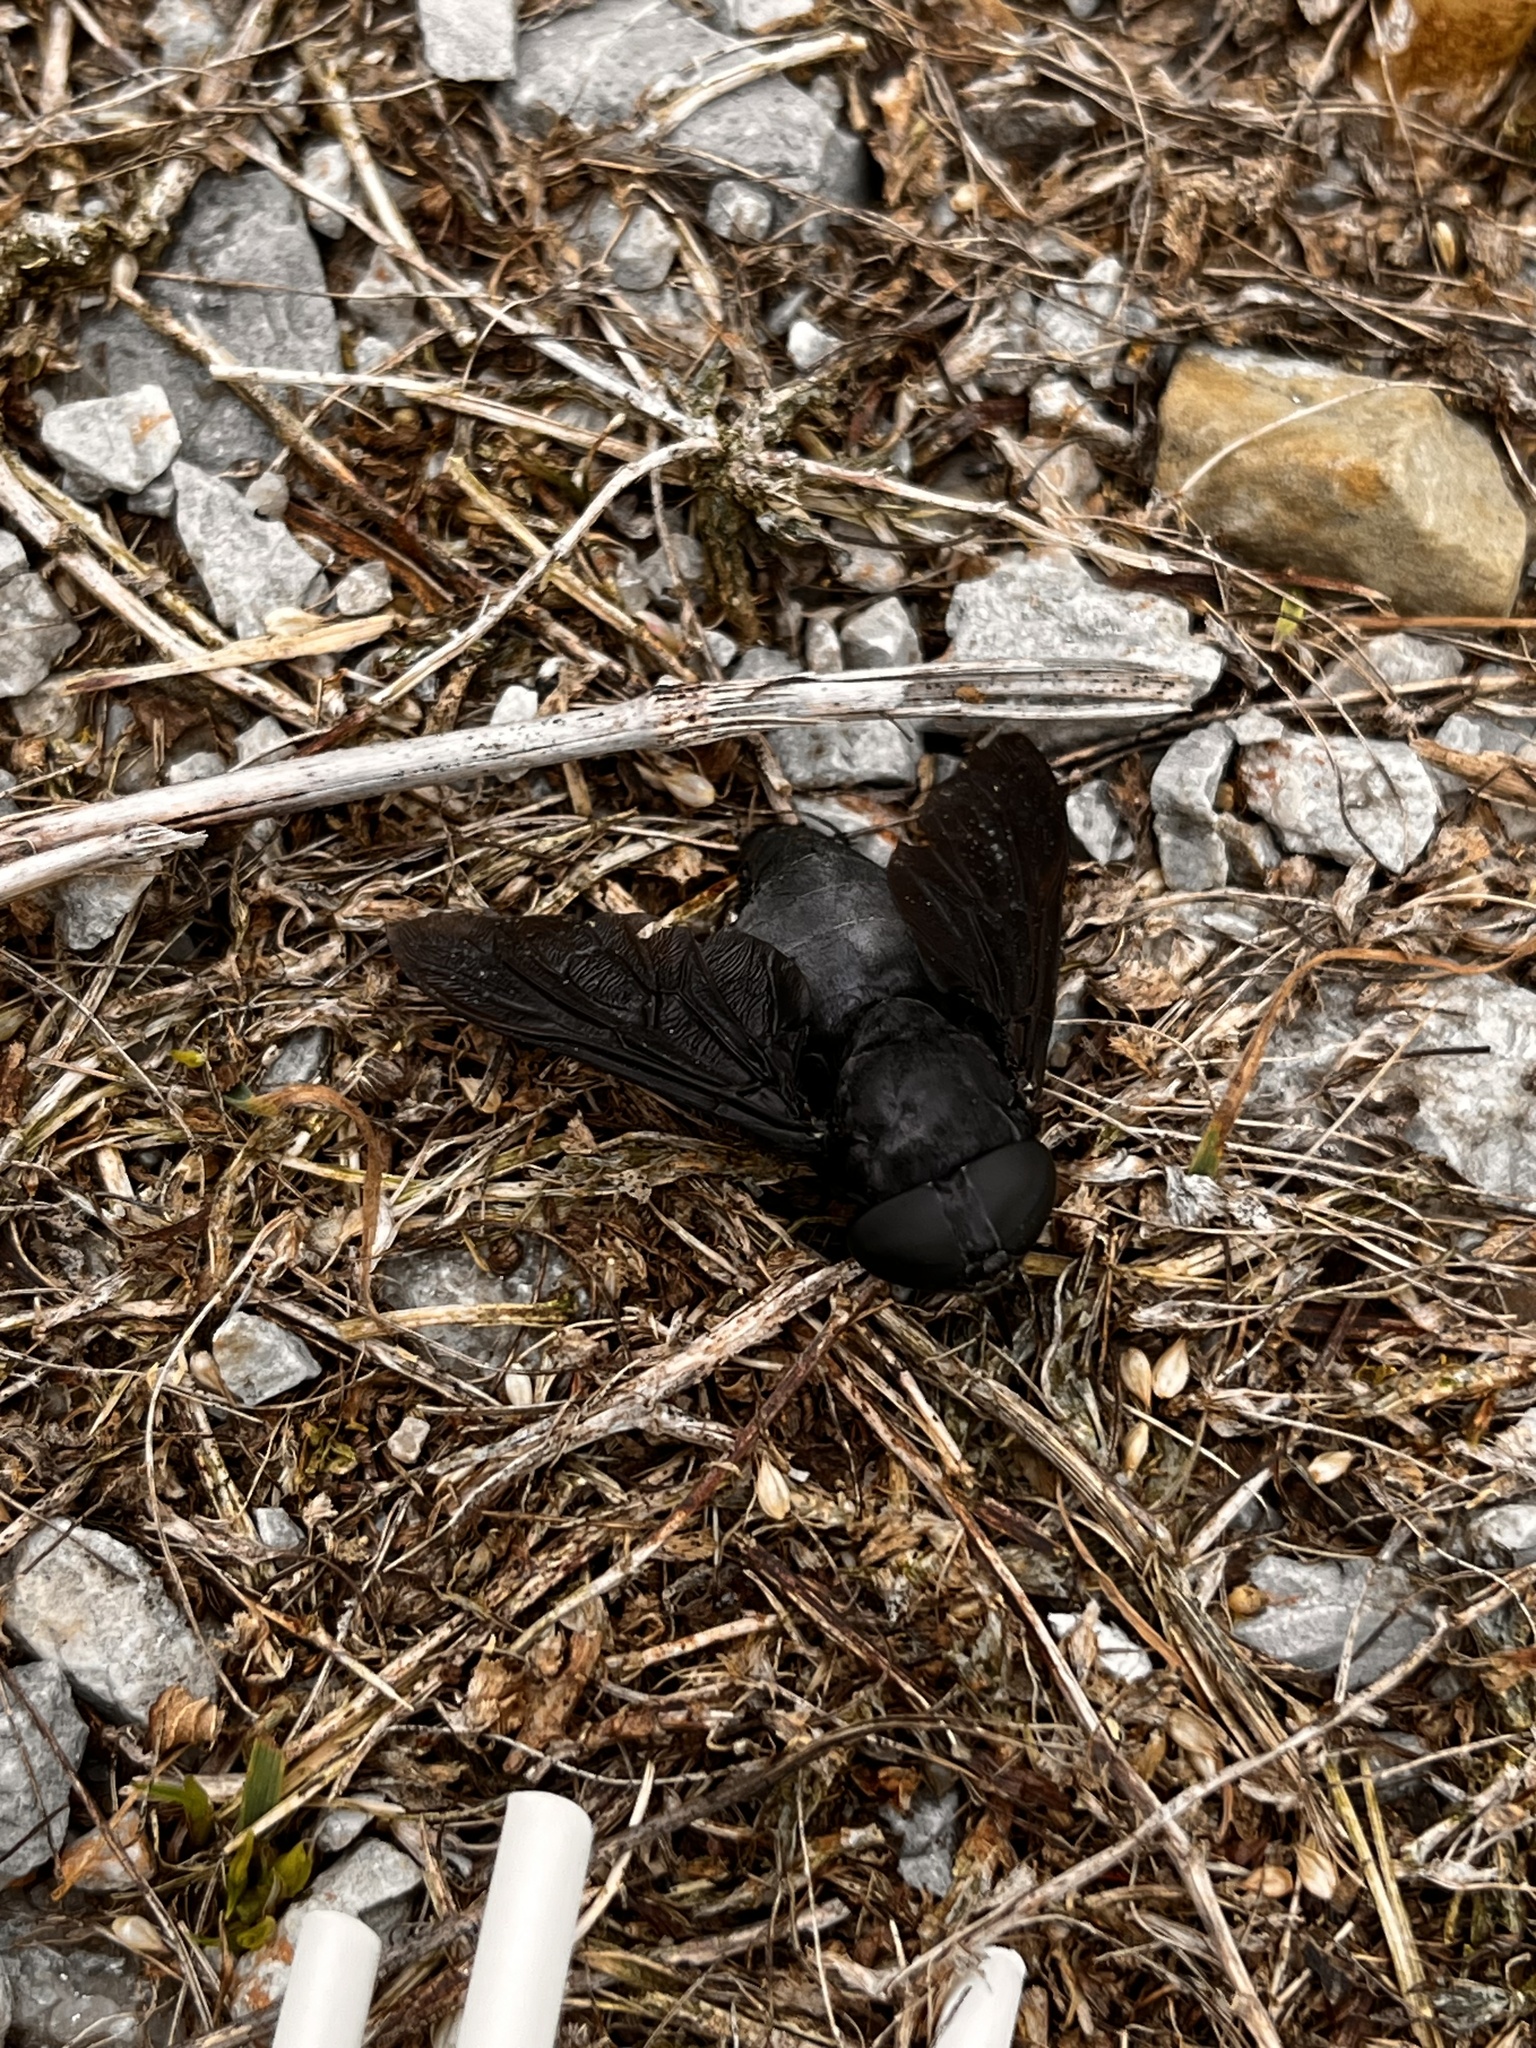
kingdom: Animalia
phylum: Arthropoda
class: Insecta
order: Diptera
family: Tabanidae
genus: Tabanus
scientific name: Tabanus atratus
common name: Black horse fly
